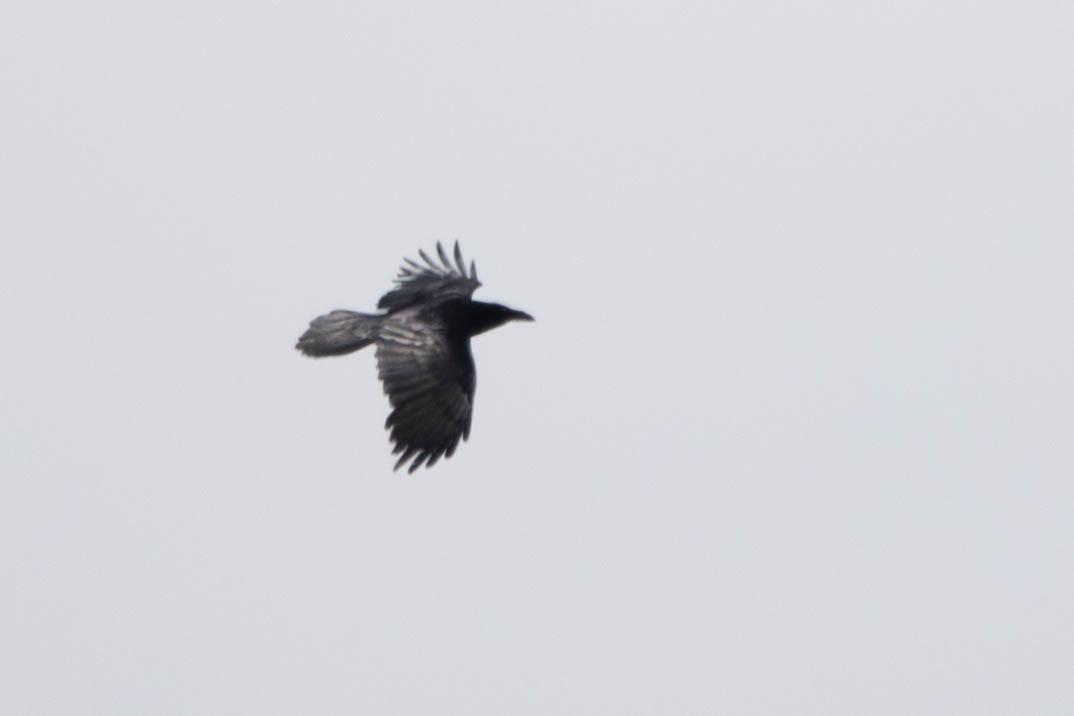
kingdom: Animalia
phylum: Chordata
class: Aves
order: Passeriformes
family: Corvidae
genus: Corvus
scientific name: Corvus corax
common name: Common raven
